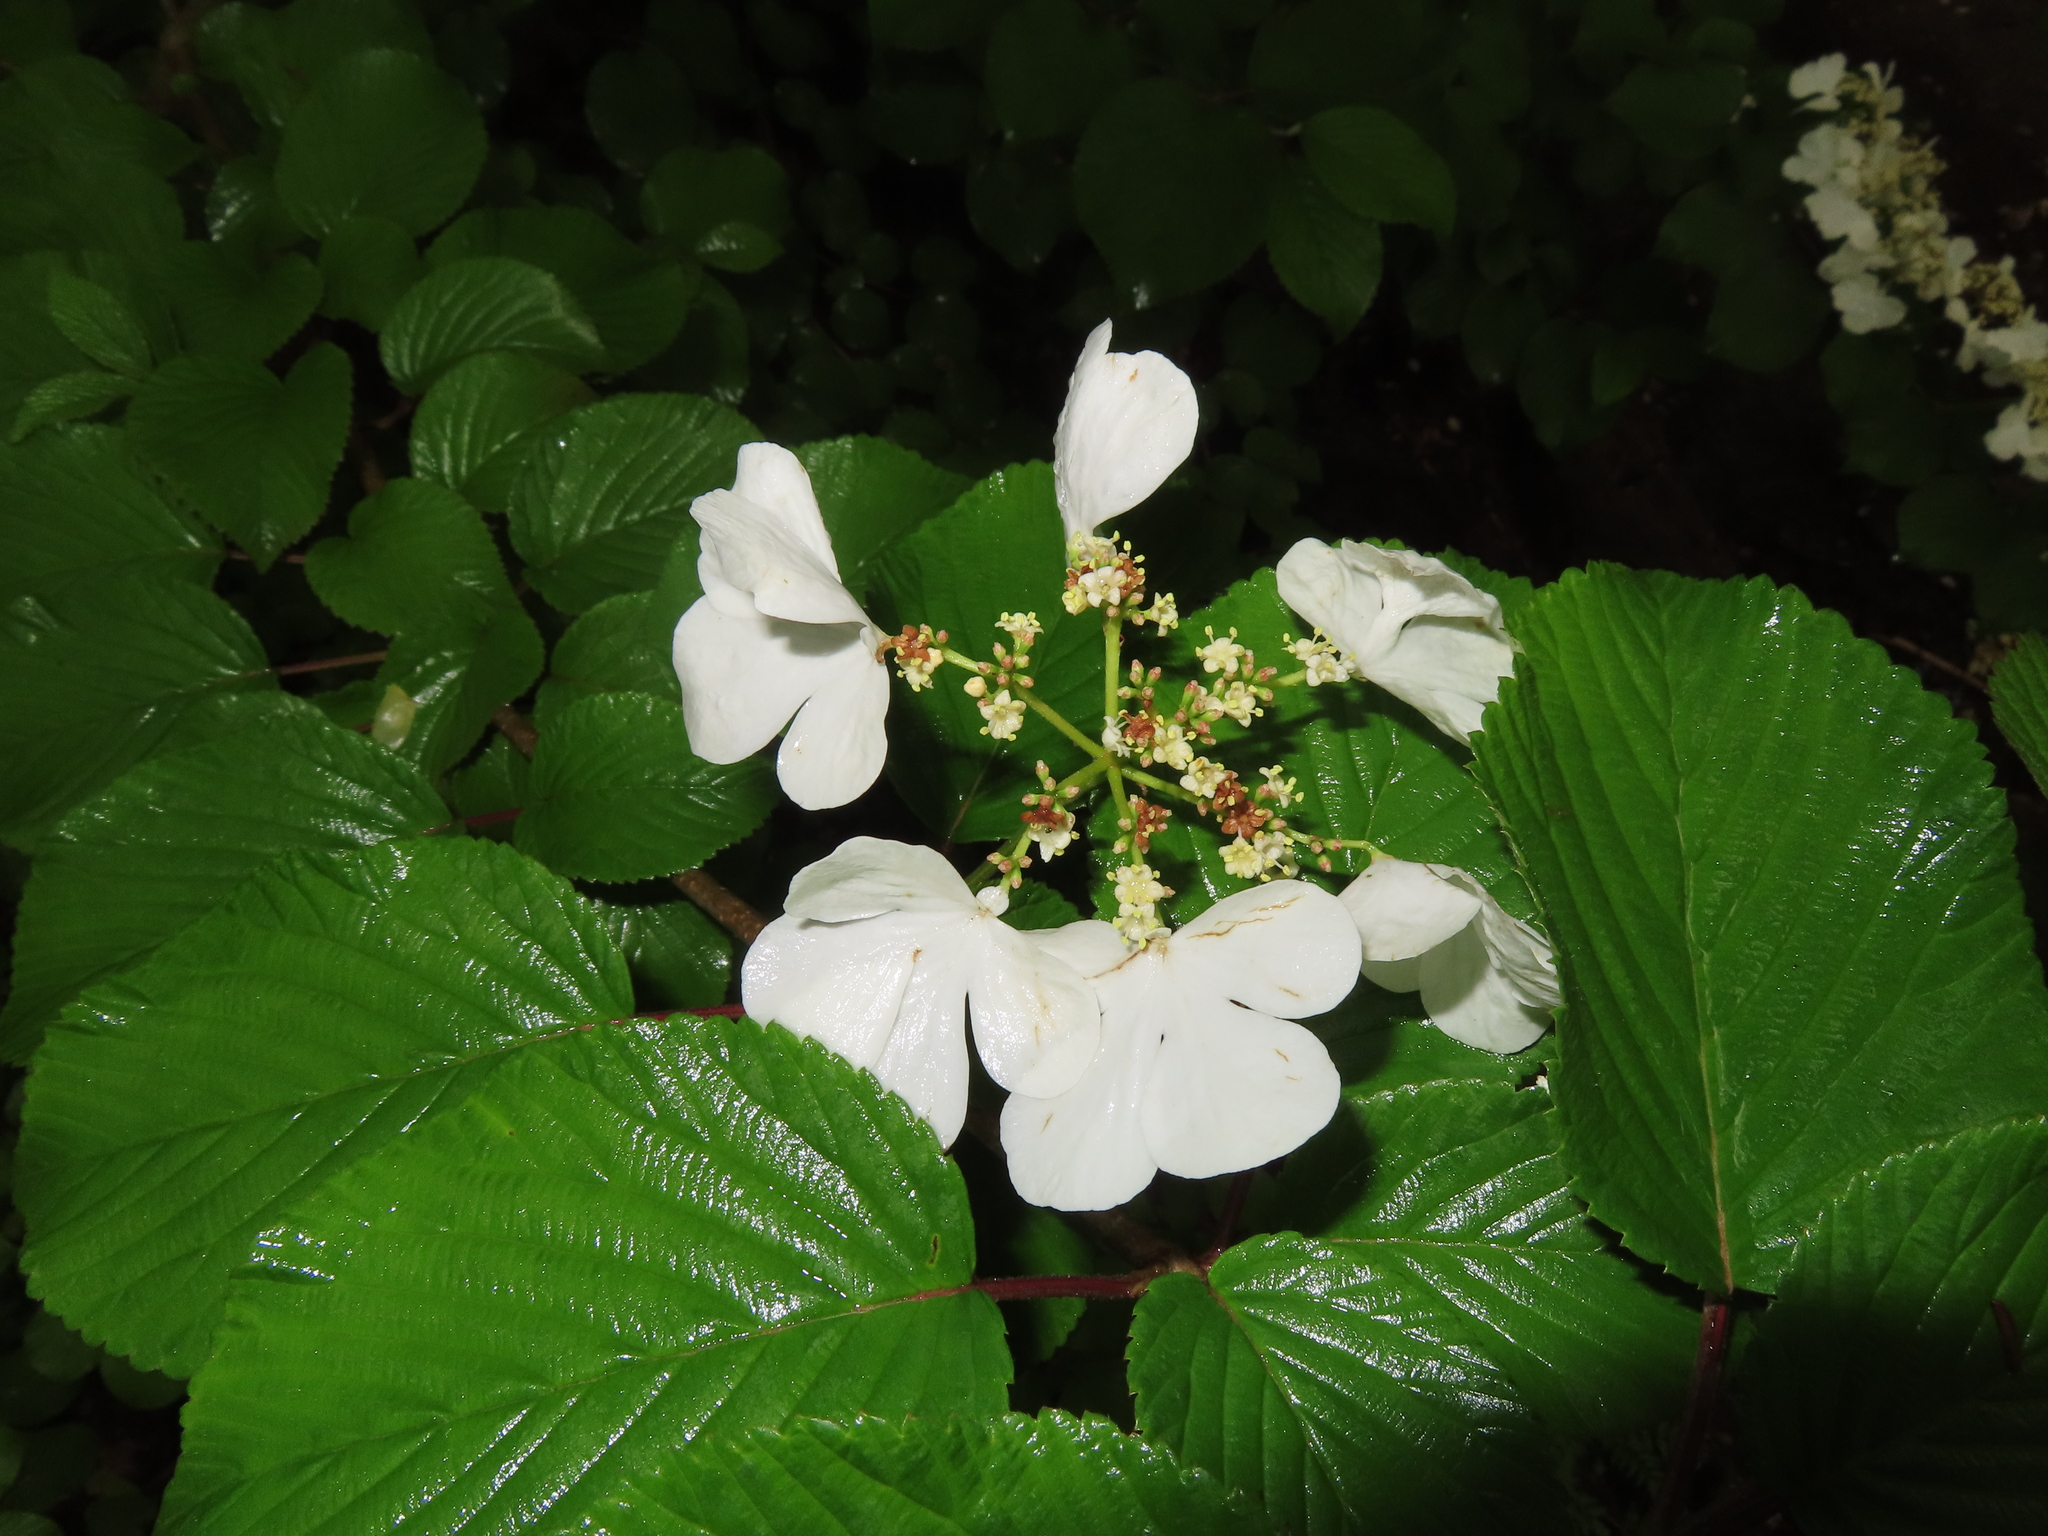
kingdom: Plantae
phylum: Tracheophyta
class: Magnoliopsida
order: Dipsacales
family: Viburnaceae
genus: Viburnum
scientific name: Viburnum plicatum
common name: Japanese snowball
